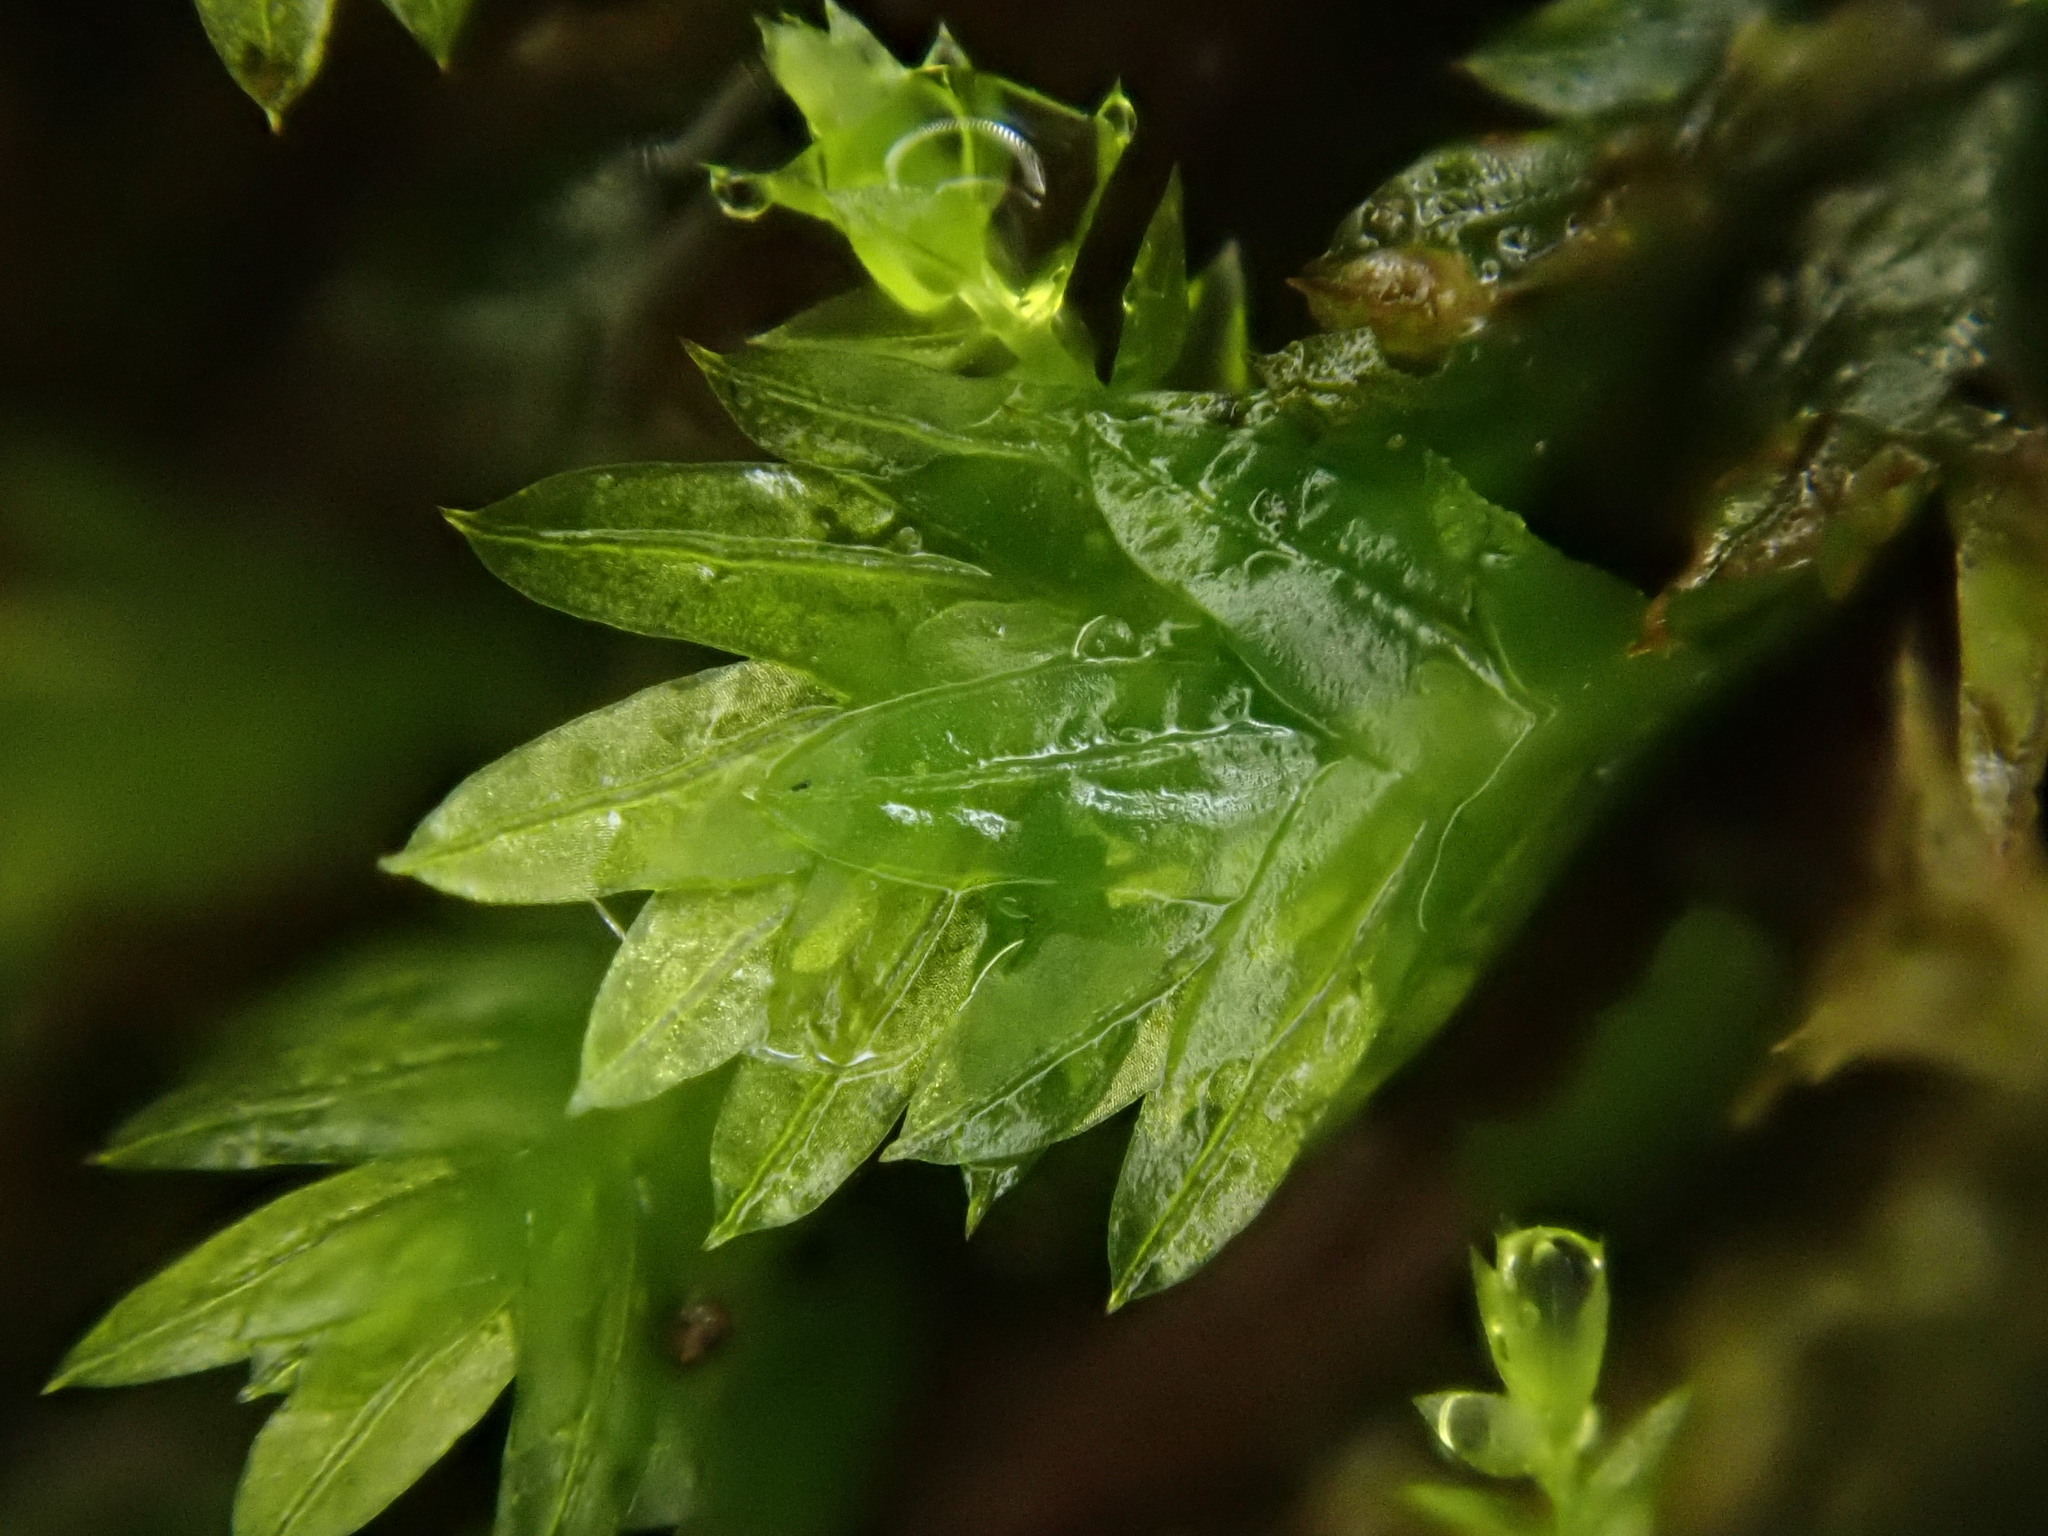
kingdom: Plantae
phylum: Bryophyta
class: Bryopsida
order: Dicranales
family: Fissidentaceae
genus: Fissidens
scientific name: Fissidens taxifolius
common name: Yew-leaved pocket moss
